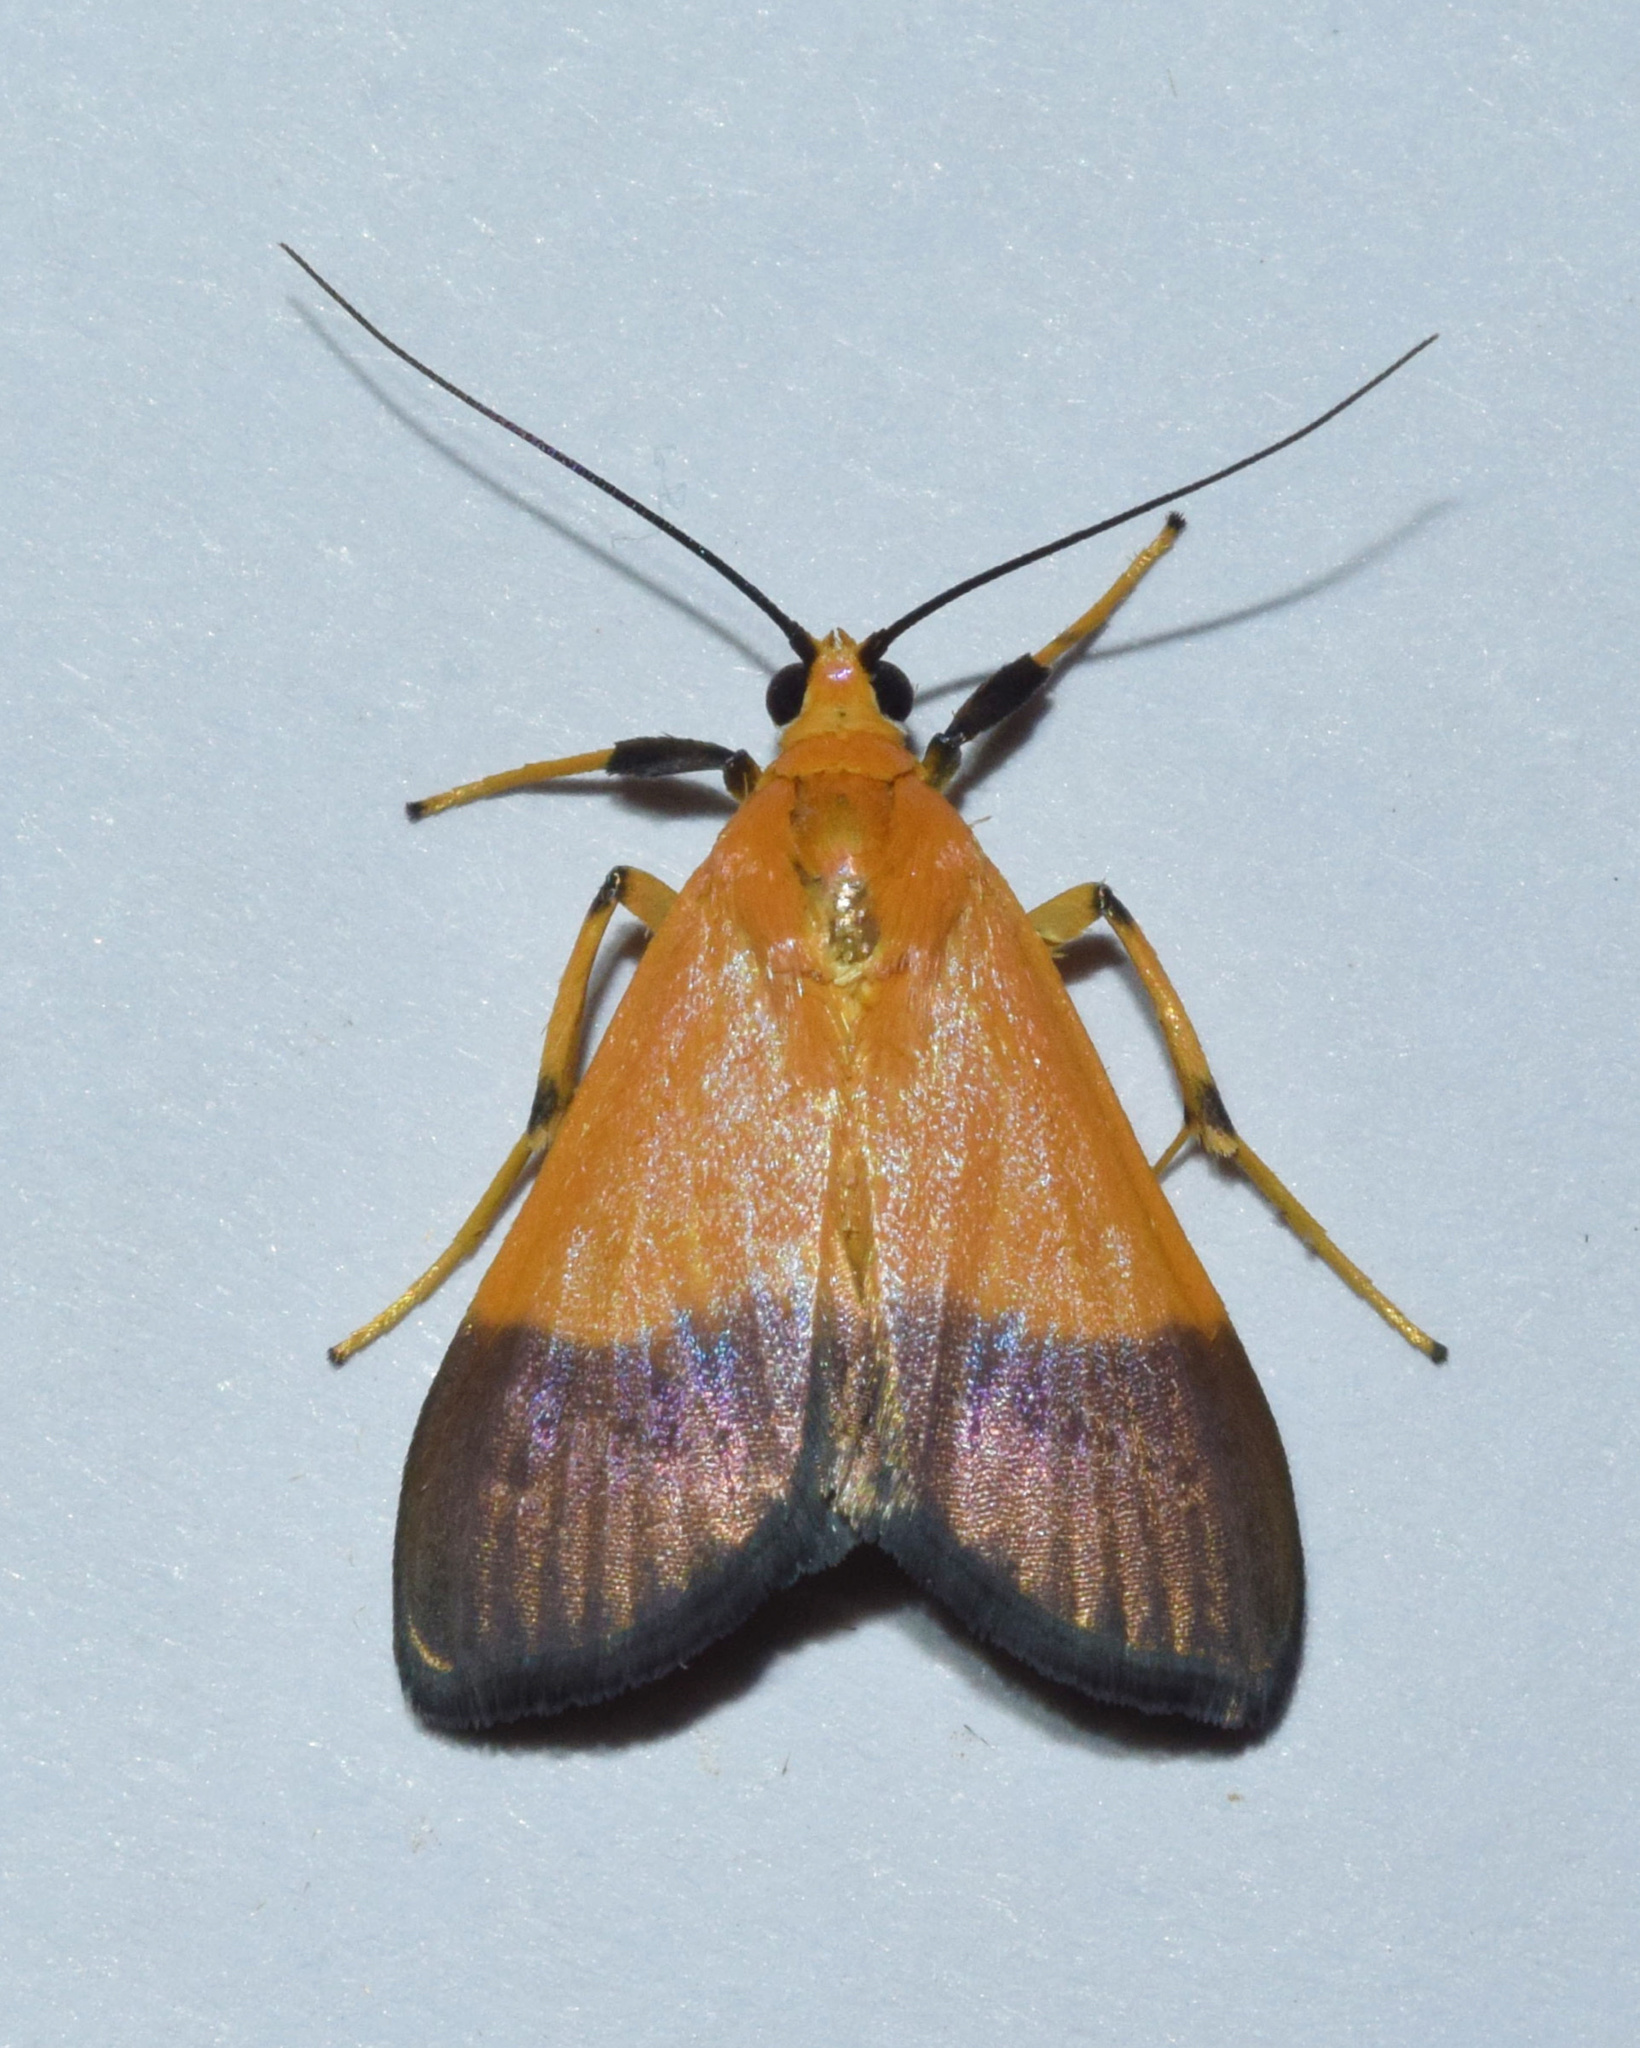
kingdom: Animalia
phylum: Arthropoda
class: Insecta
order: Lepidoptera
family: Crambidae
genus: Ulopeza
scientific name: Ulopeza conigeralis
